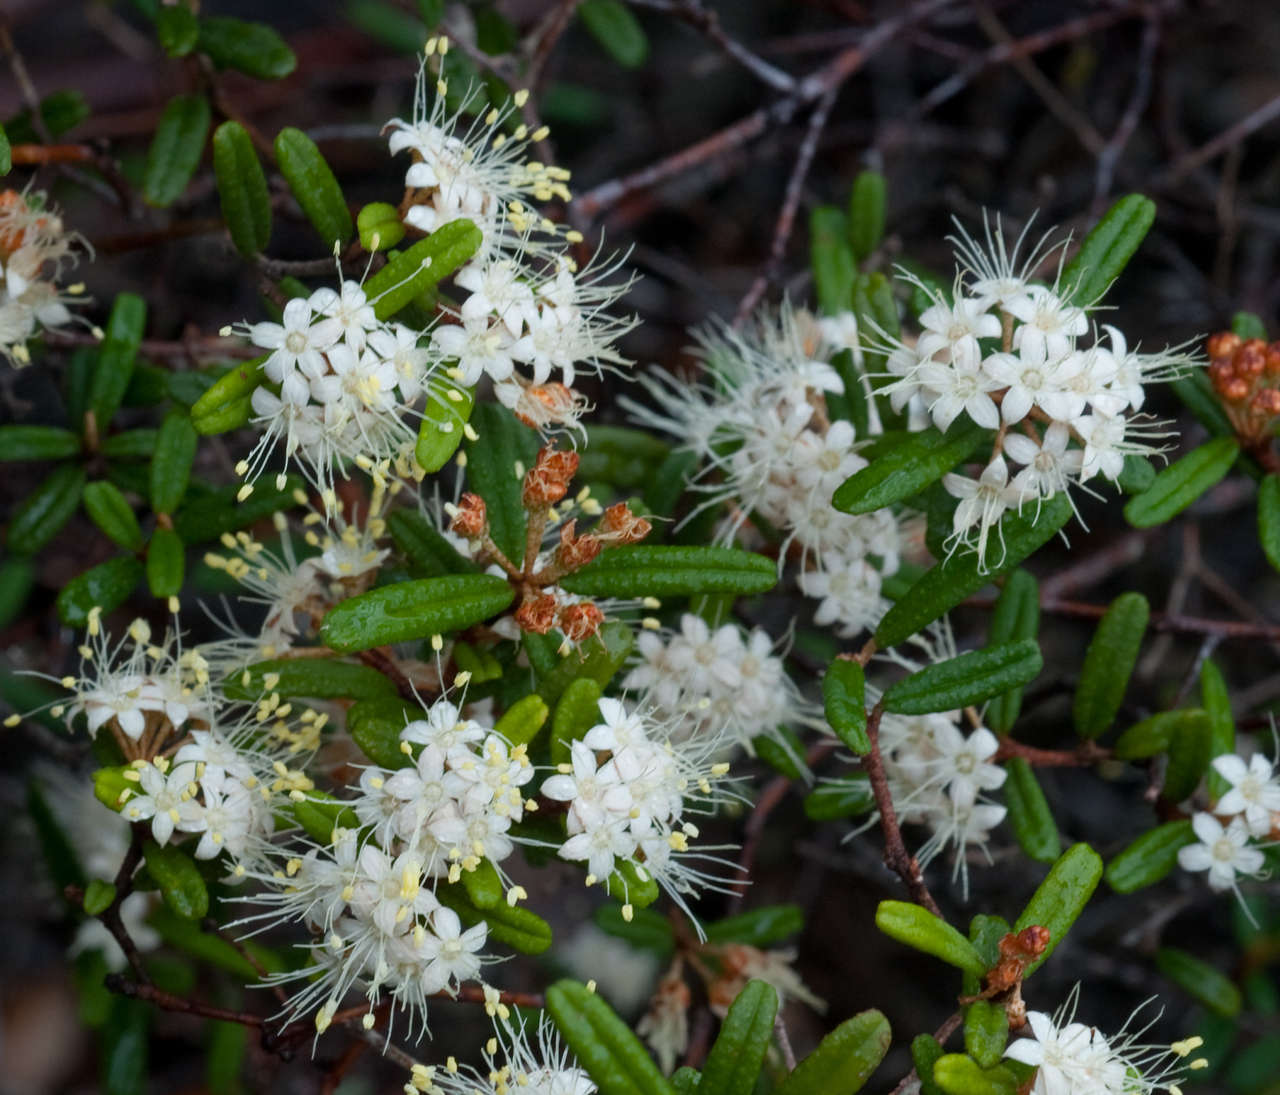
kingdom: Plantae
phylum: Tracheophyta
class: Magnoliopsida
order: Sapindales
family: Rutaceae
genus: Phebalium
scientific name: Phebalium squamulosum
